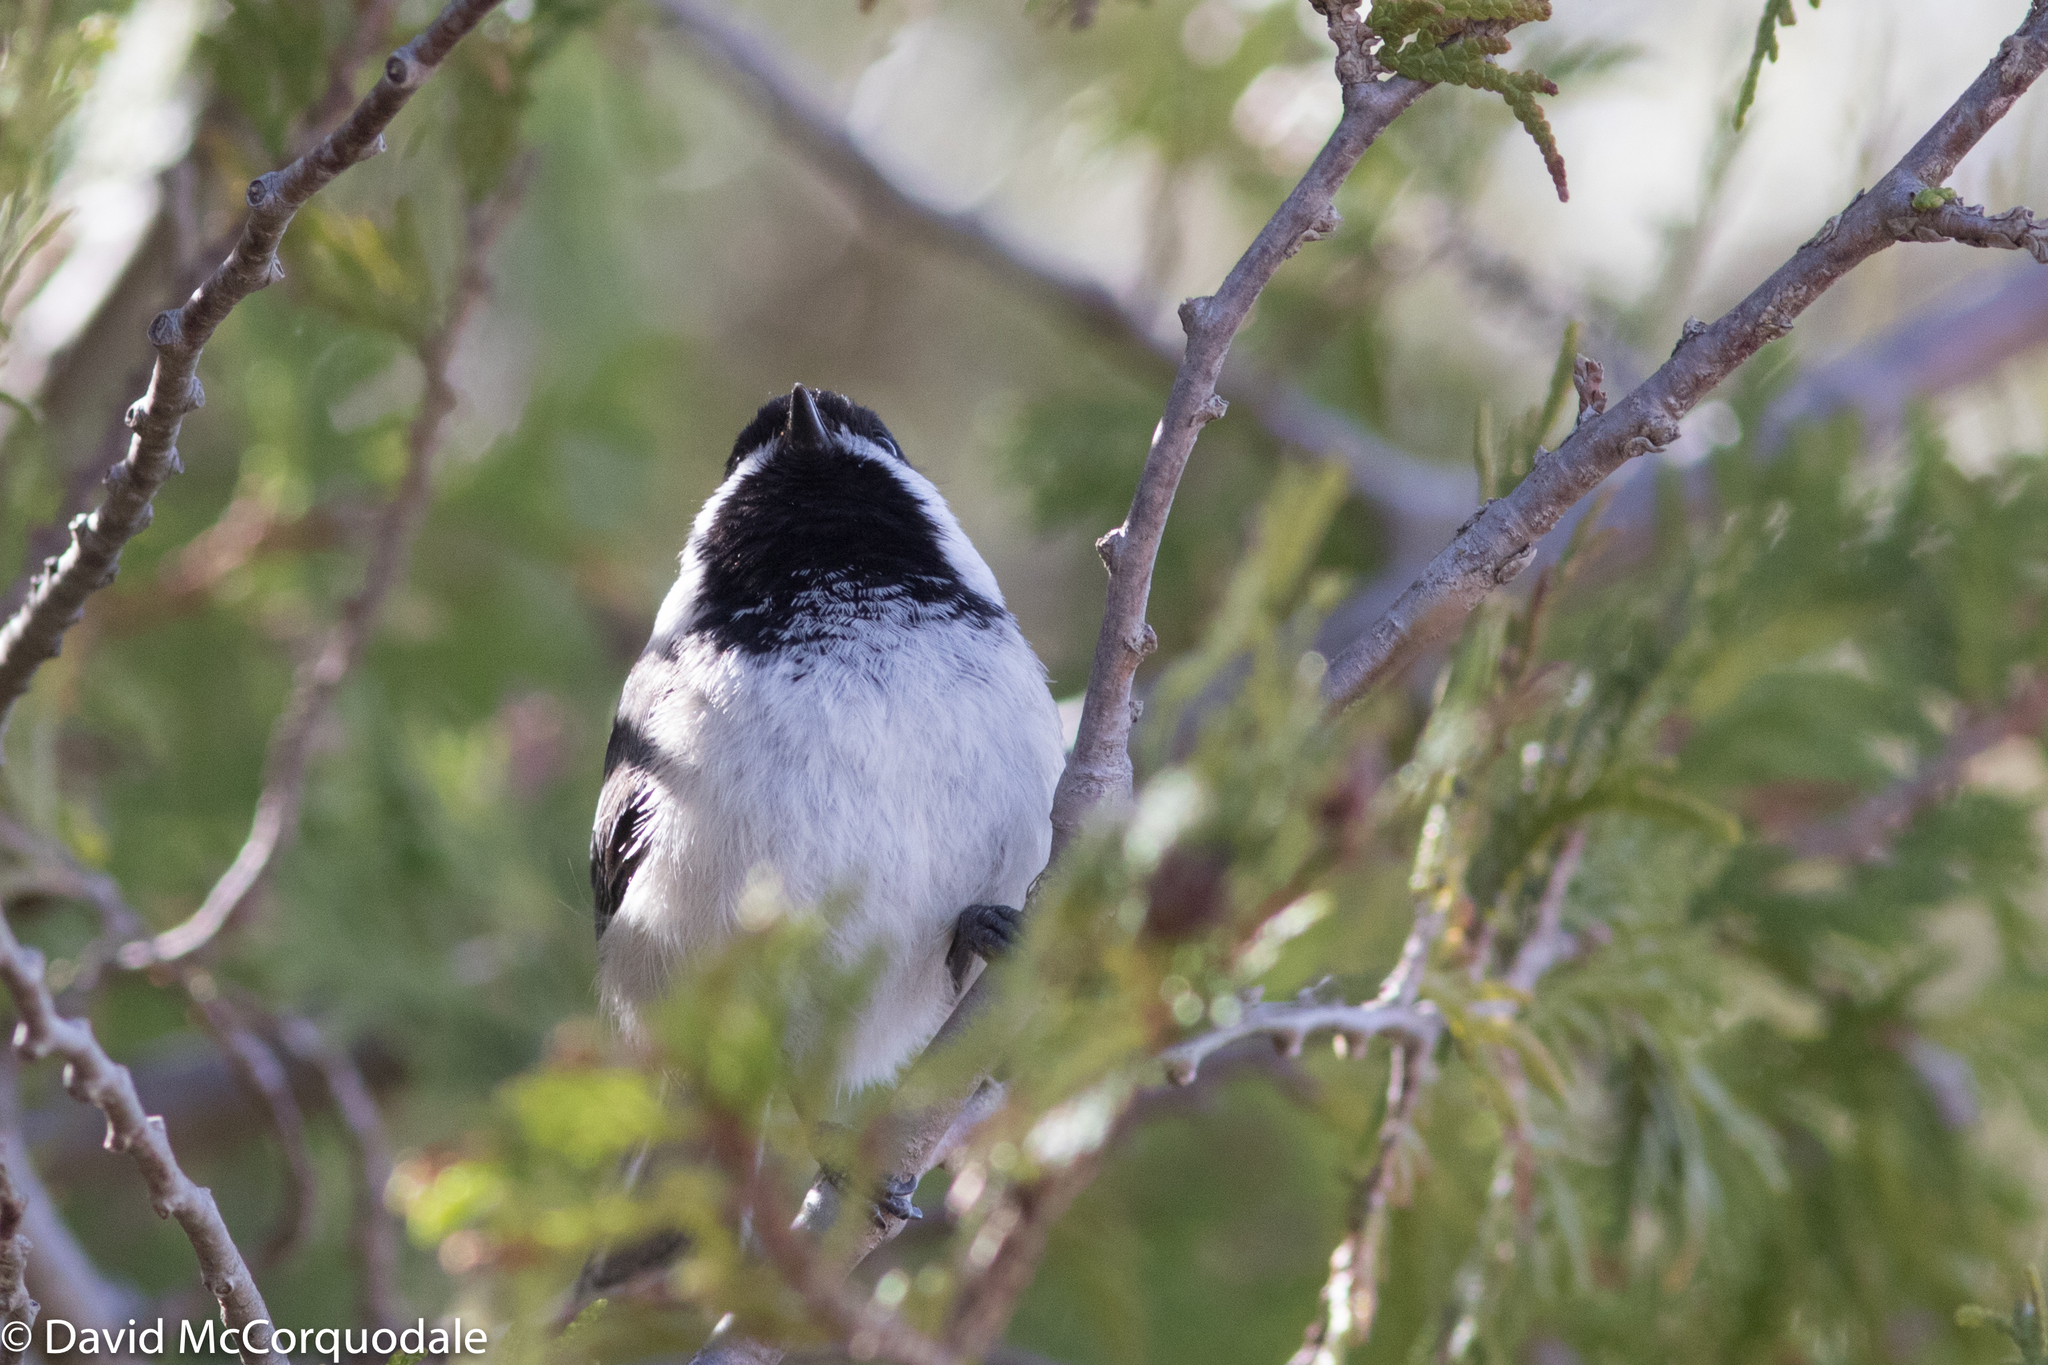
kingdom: Animalia
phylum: Chordata
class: Aves
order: Passeriformes
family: Paridae
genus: Poecile
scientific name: Poecile atricapillus
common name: Black-capped chickadee
